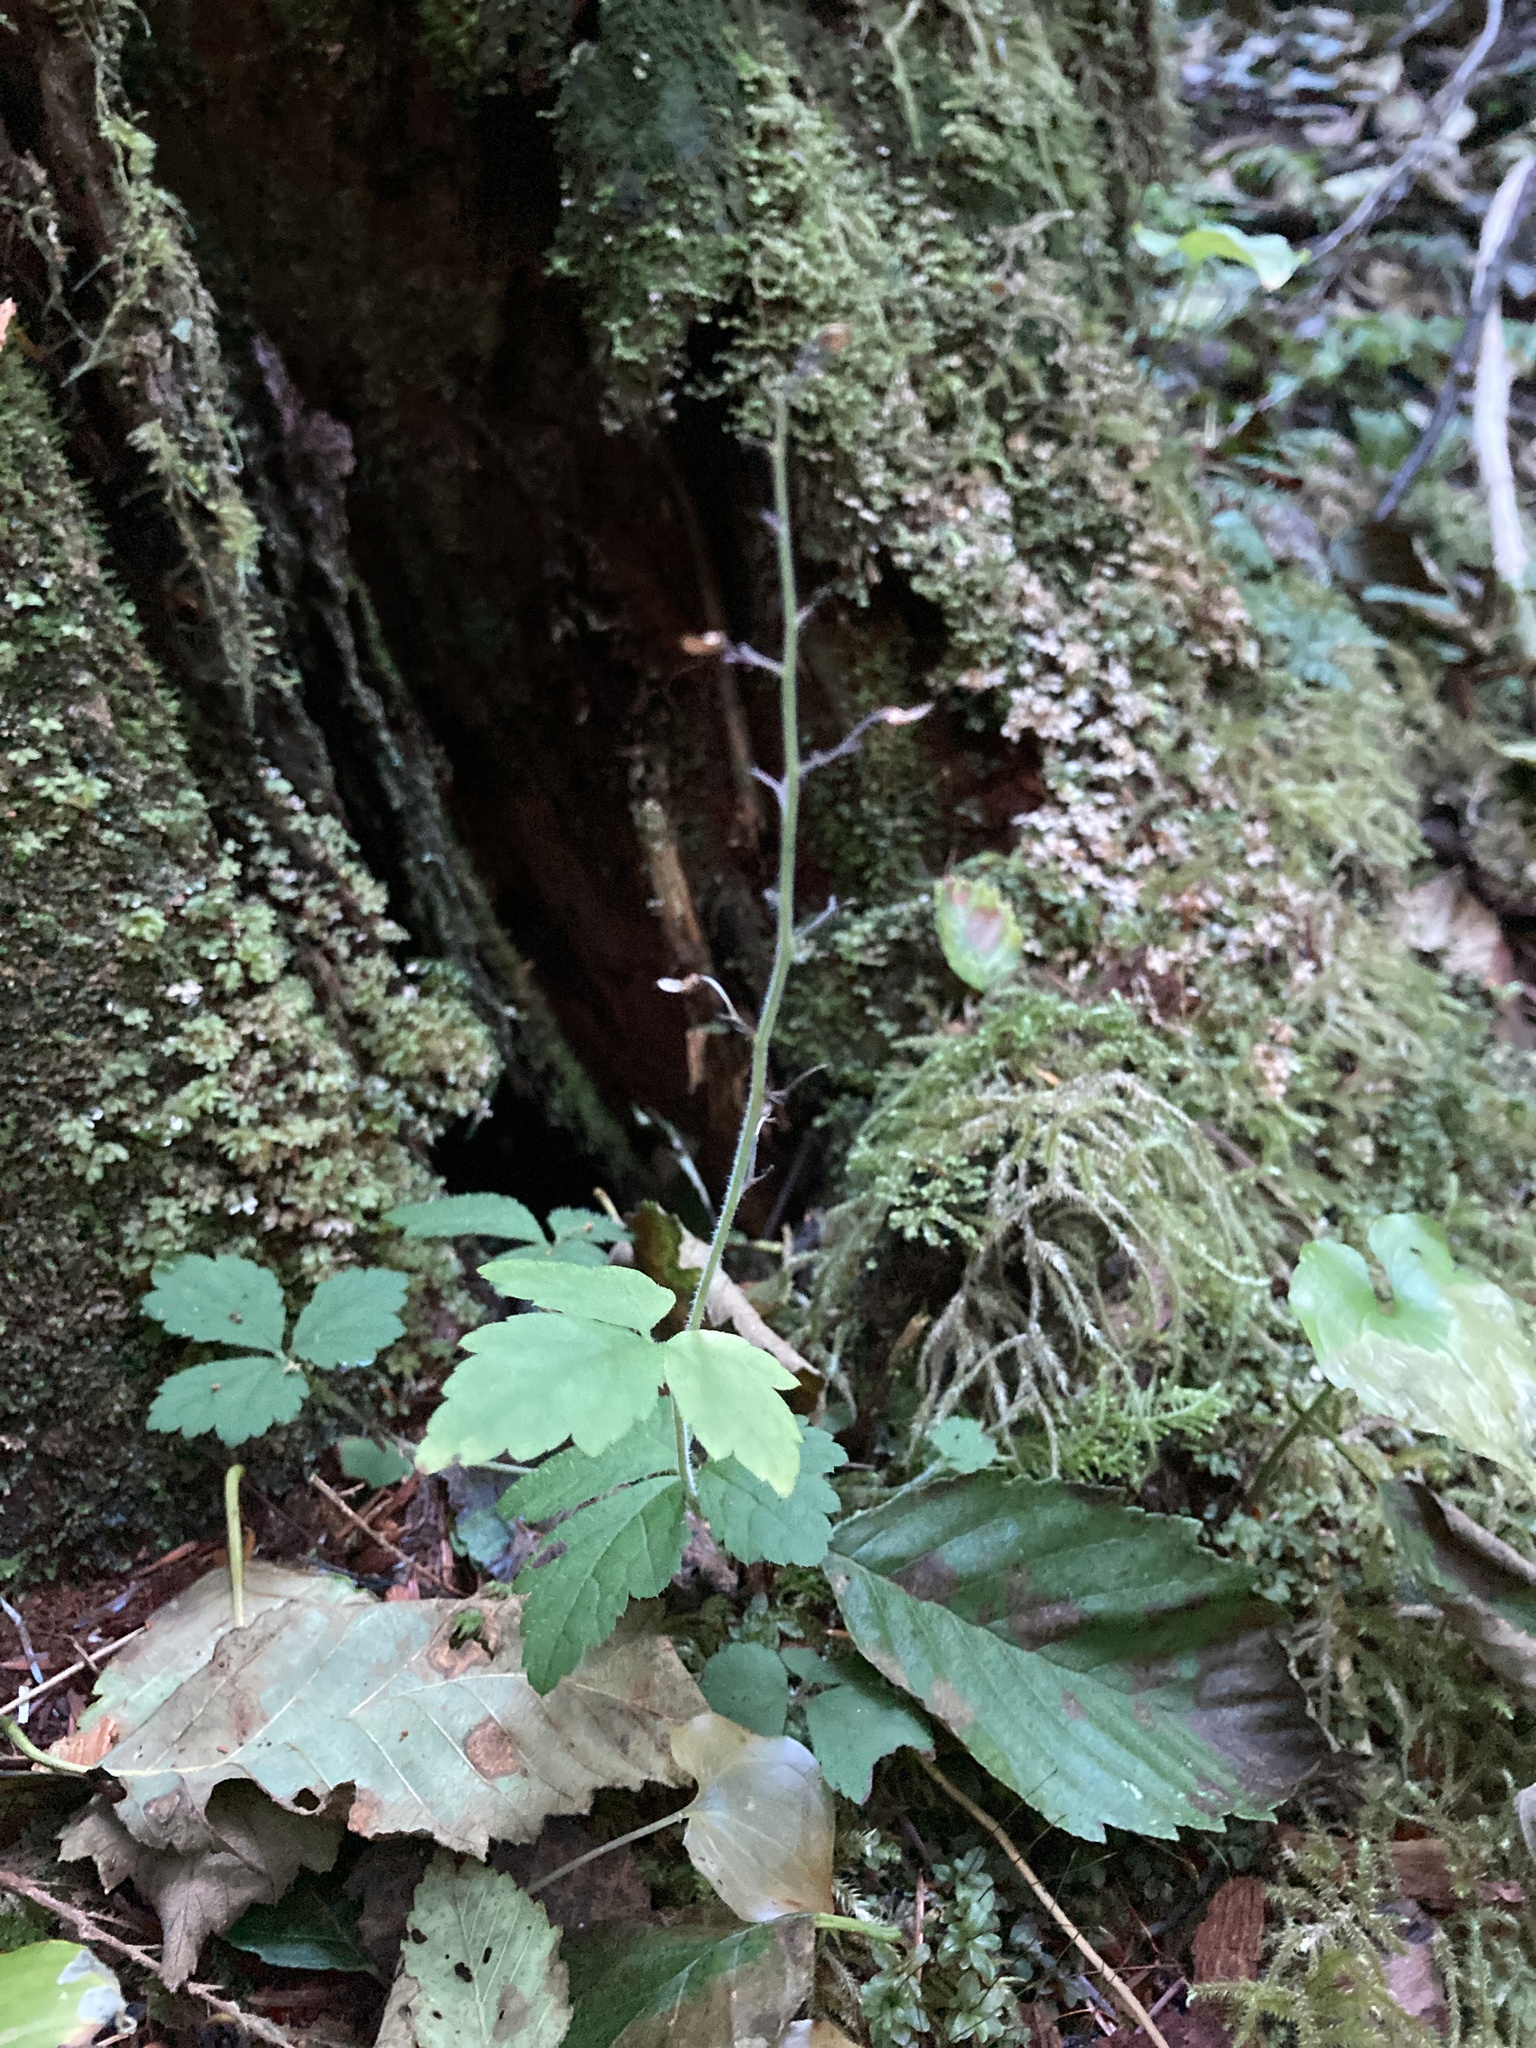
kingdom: Plantae
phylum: Tracheophyta
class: Magnoliopsida
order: Saxifragales
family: Saxifragaceae
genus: Tiarella
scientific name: Tiarella trifoliata
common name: Sugar-scoop
